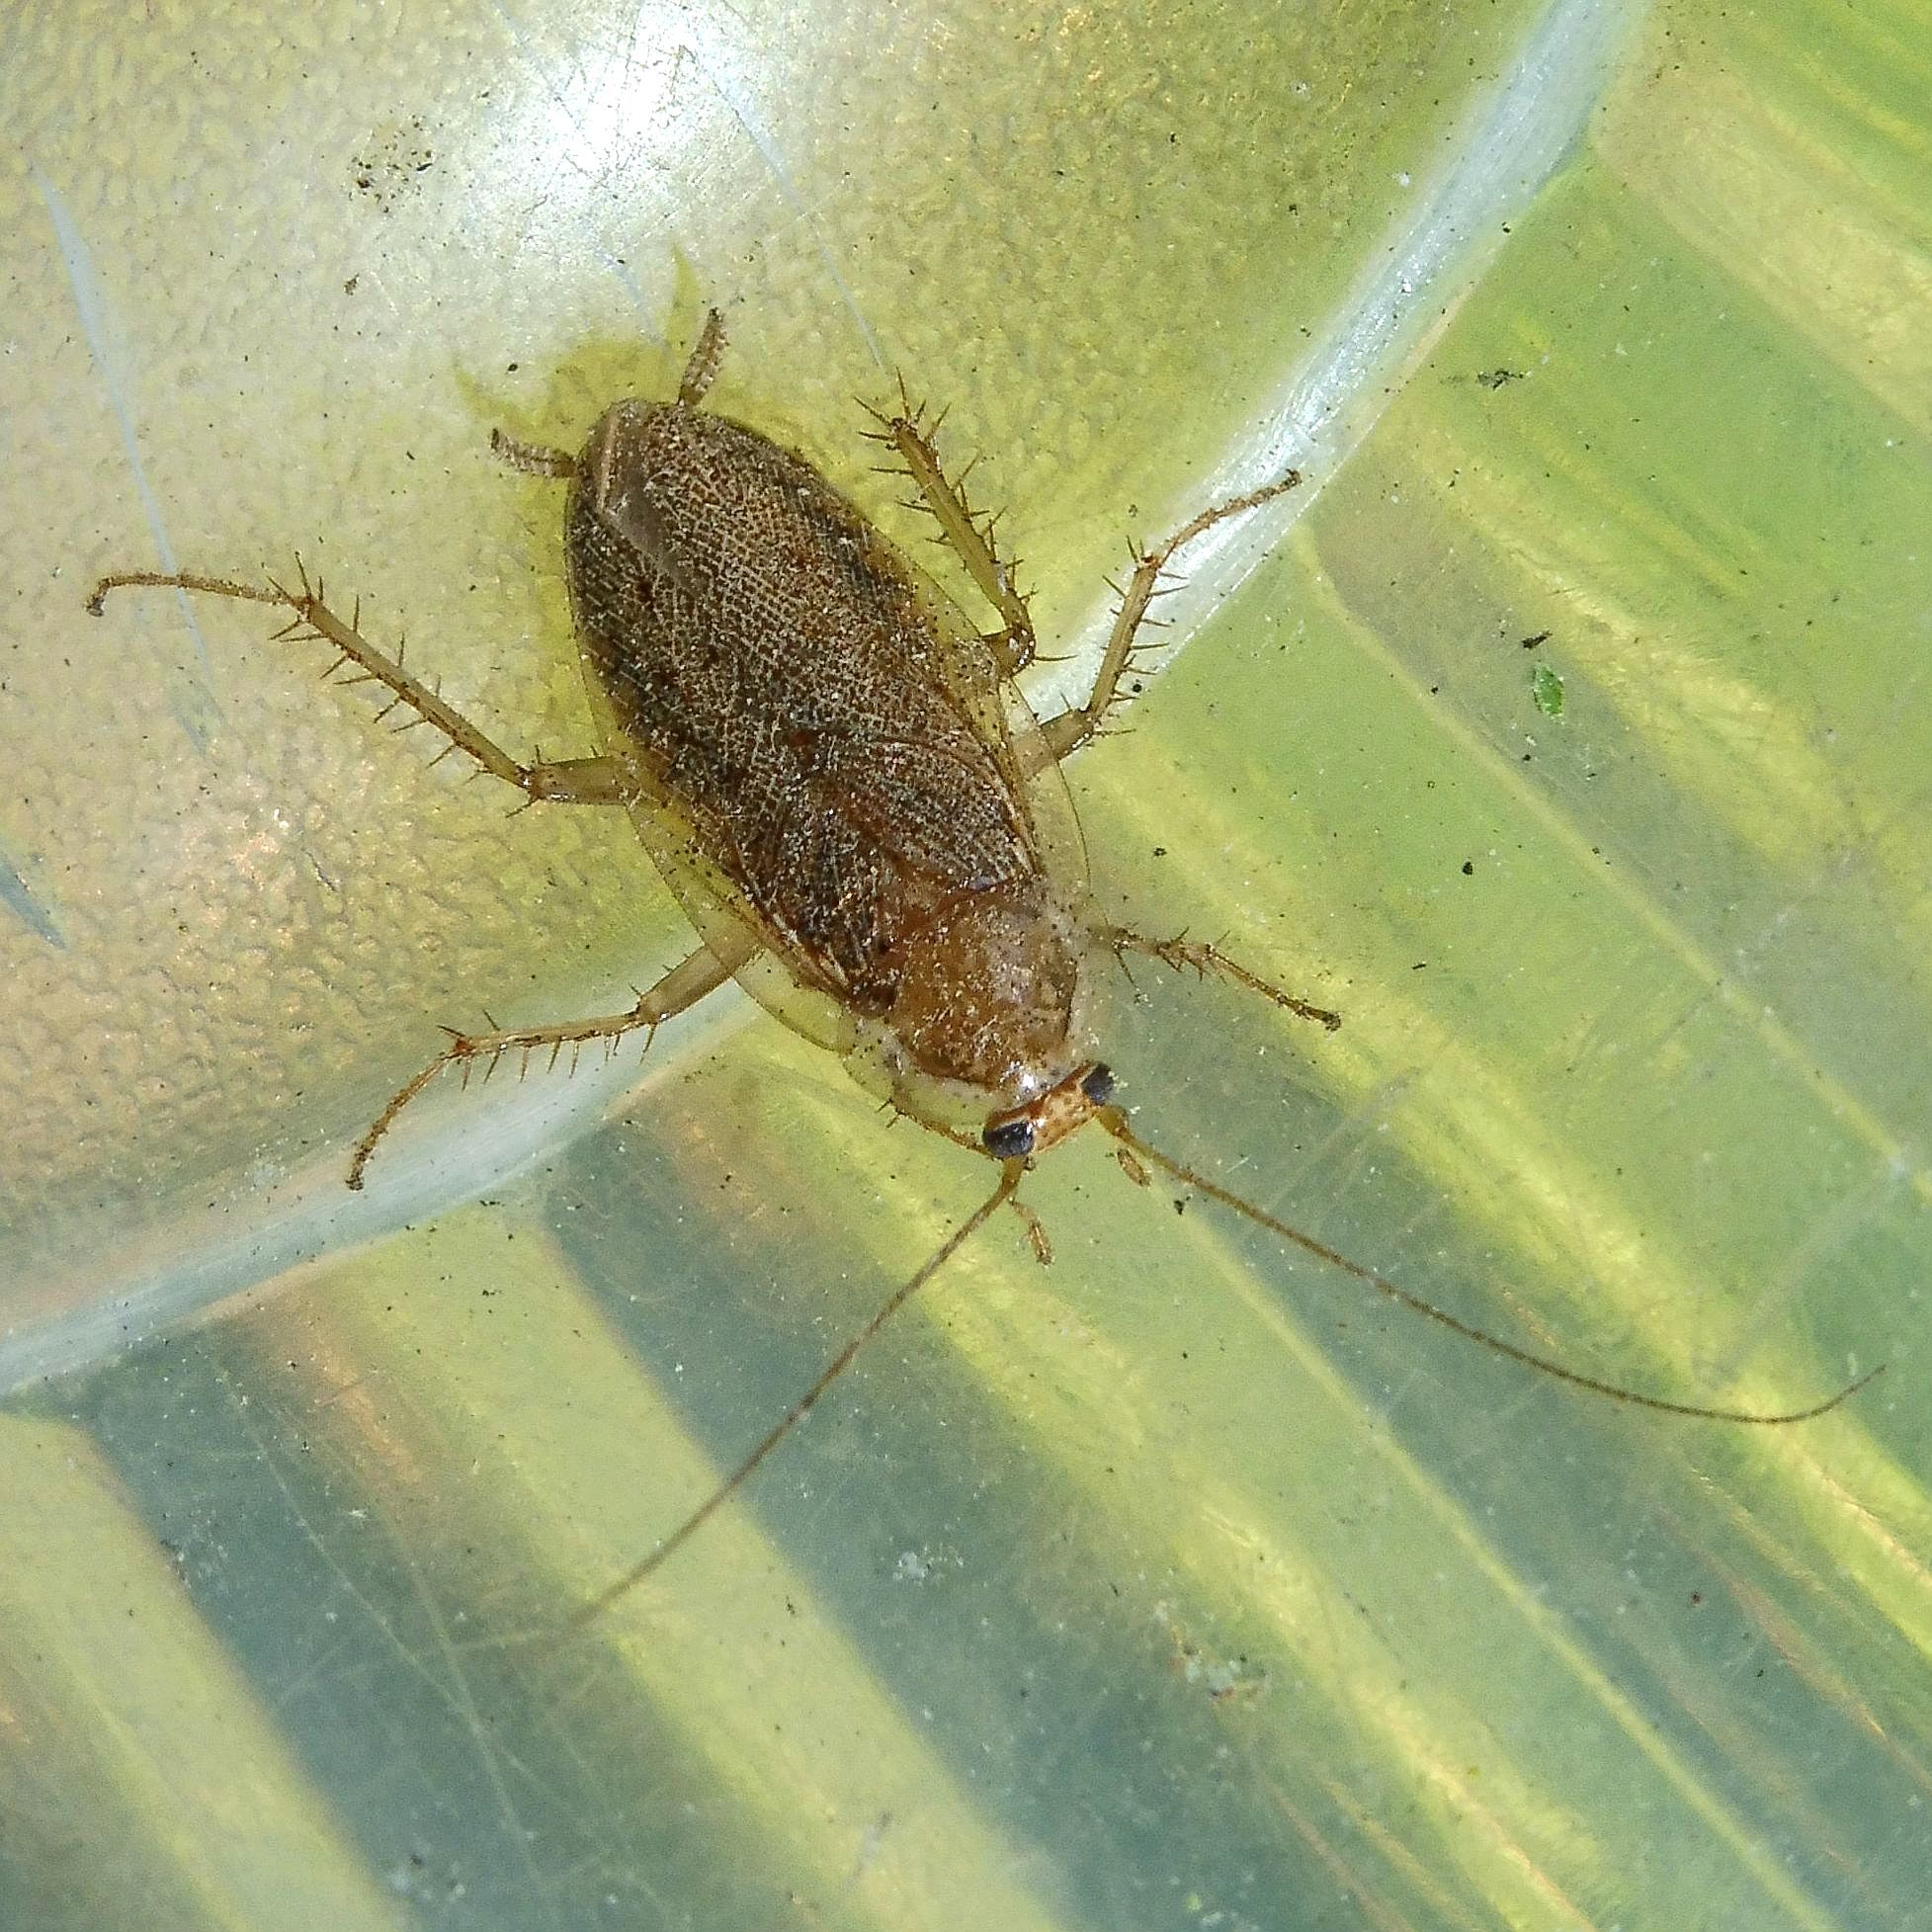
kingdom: Animalia
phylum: Arthropoda
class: Insecta
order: Blattodea
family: Ectobiidae
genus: Ectobius
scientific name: Ectobius pallidus
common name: Tawny cockroach
